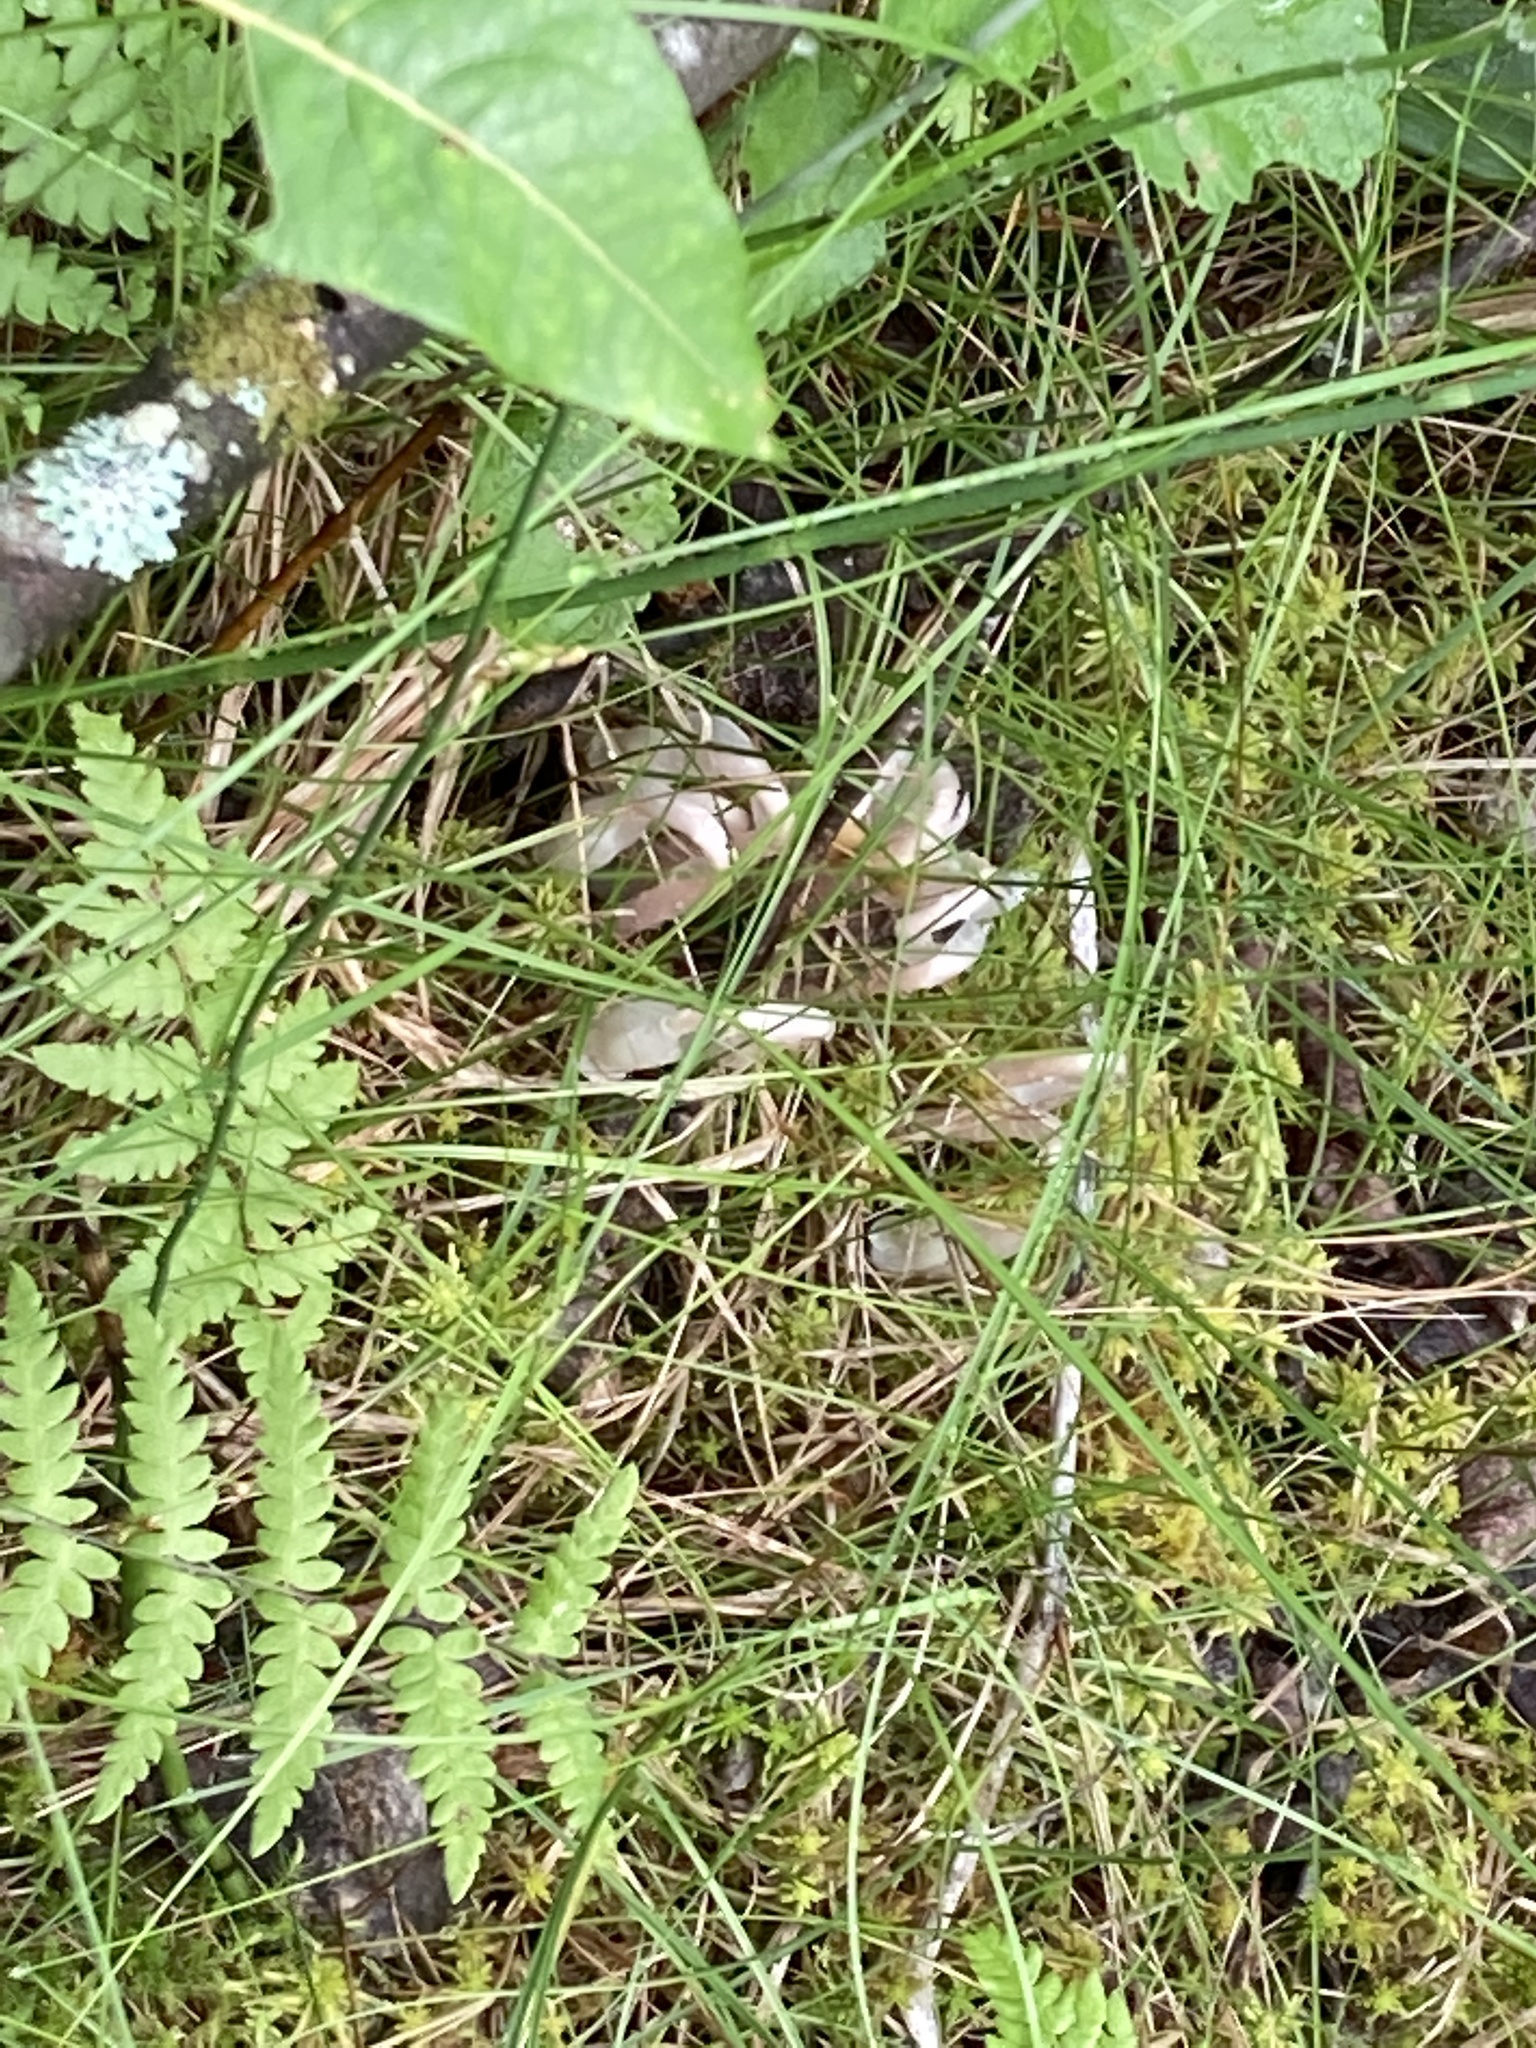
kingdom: Plantae
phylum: Tracheophyta
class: Magnoliopsida
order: Ericales
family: Ericaceae
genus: Monotropa
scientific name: Monotropa uniflora
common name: Convulsion root
